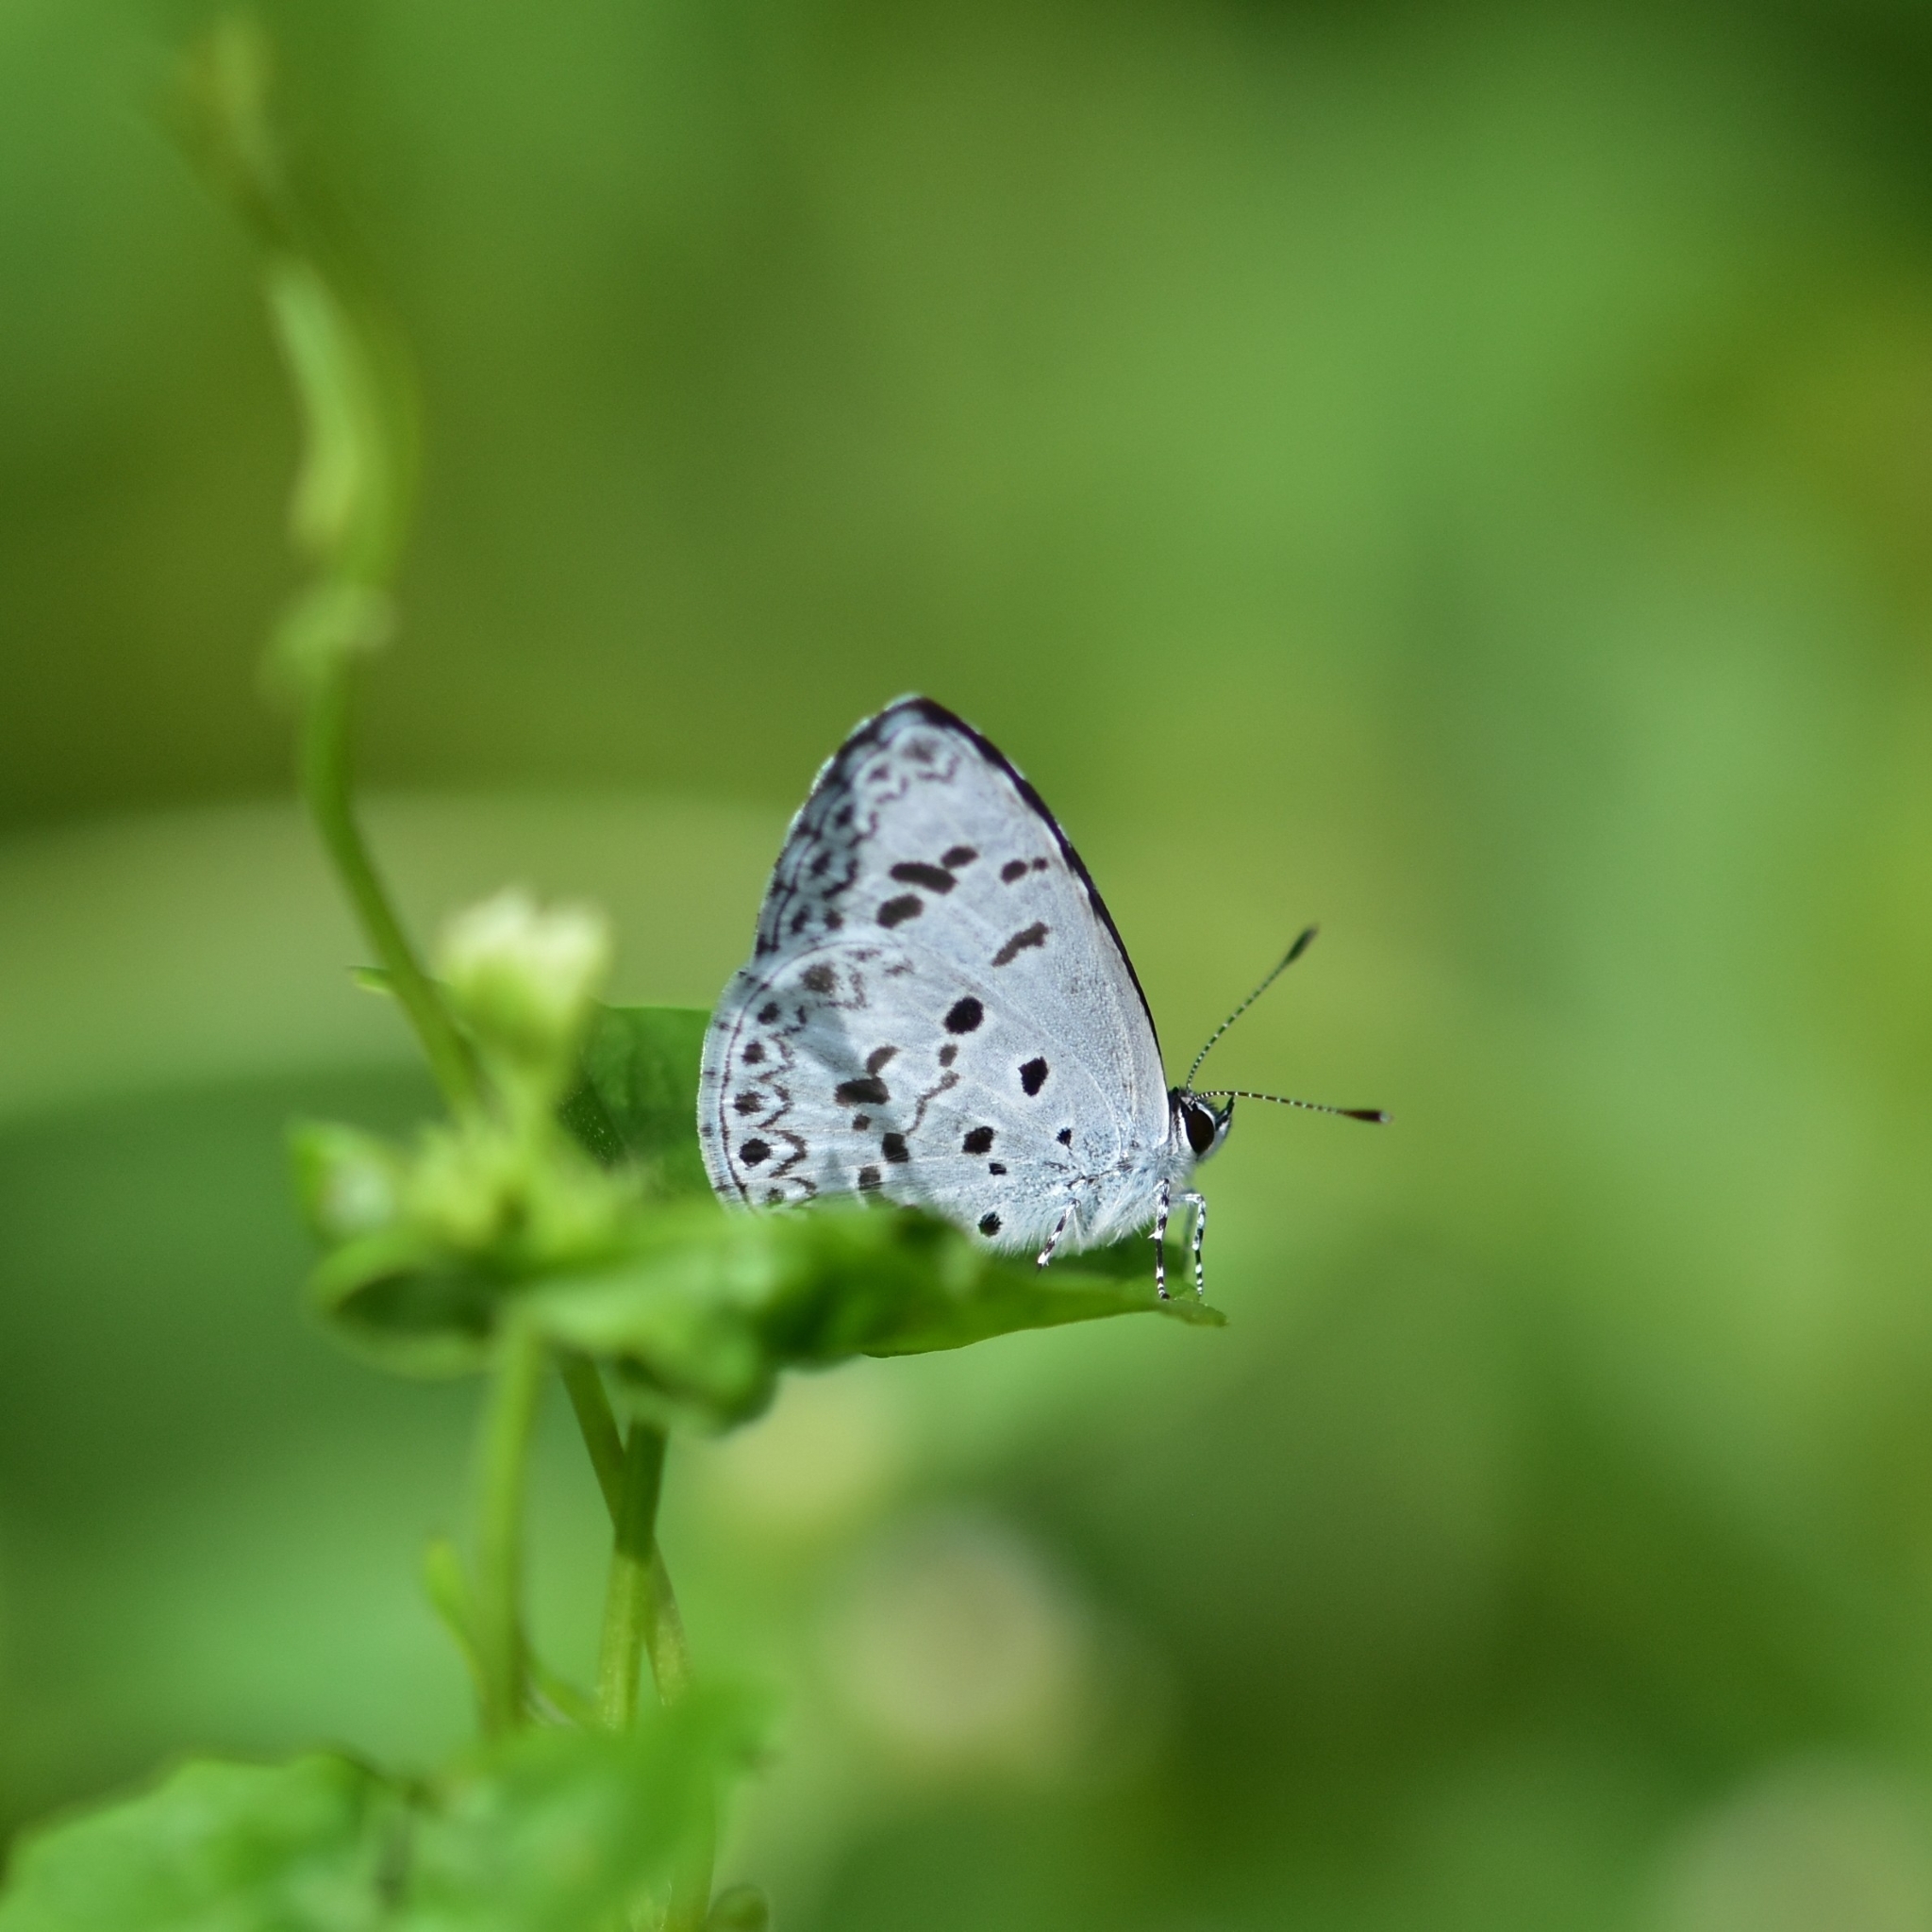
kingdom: Animalia
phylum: Arthropoda
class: Insecta
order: Lepidoptera
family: Lycaenidae
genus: Acytolepis
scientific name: Acytolepis puspa
